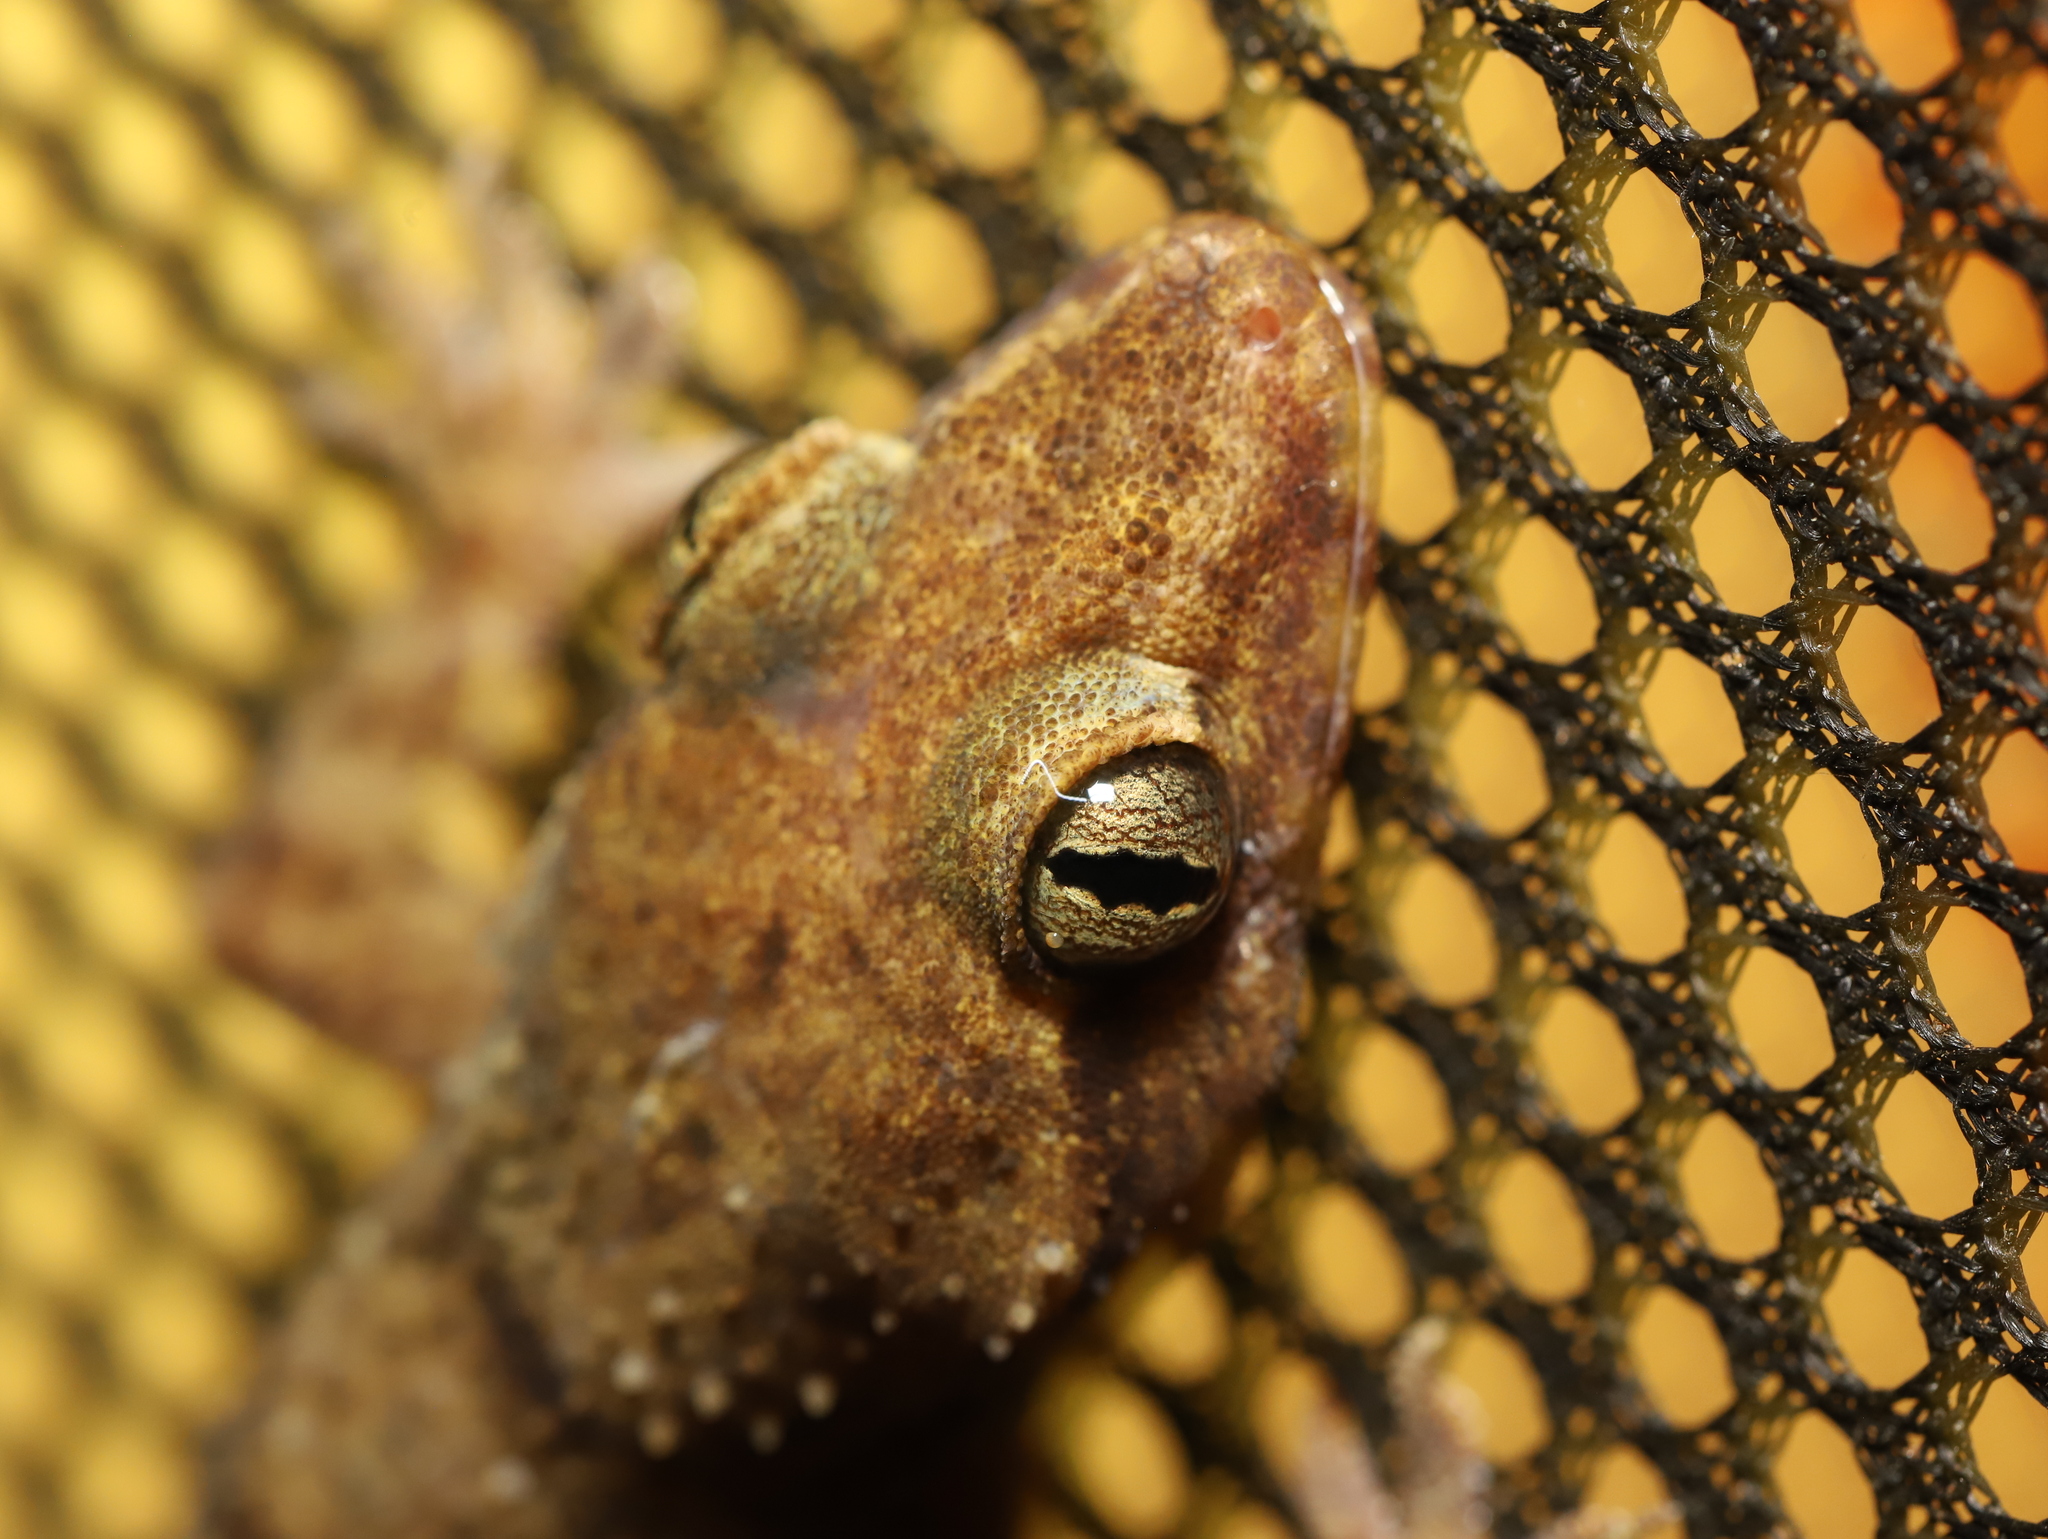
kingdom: Animalia
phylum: Chordata
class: Squamata
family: Gekkonidae
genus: Hemidactylus
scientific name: Hemidactylus depressus
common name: Srilanka leaf-toed gecko
